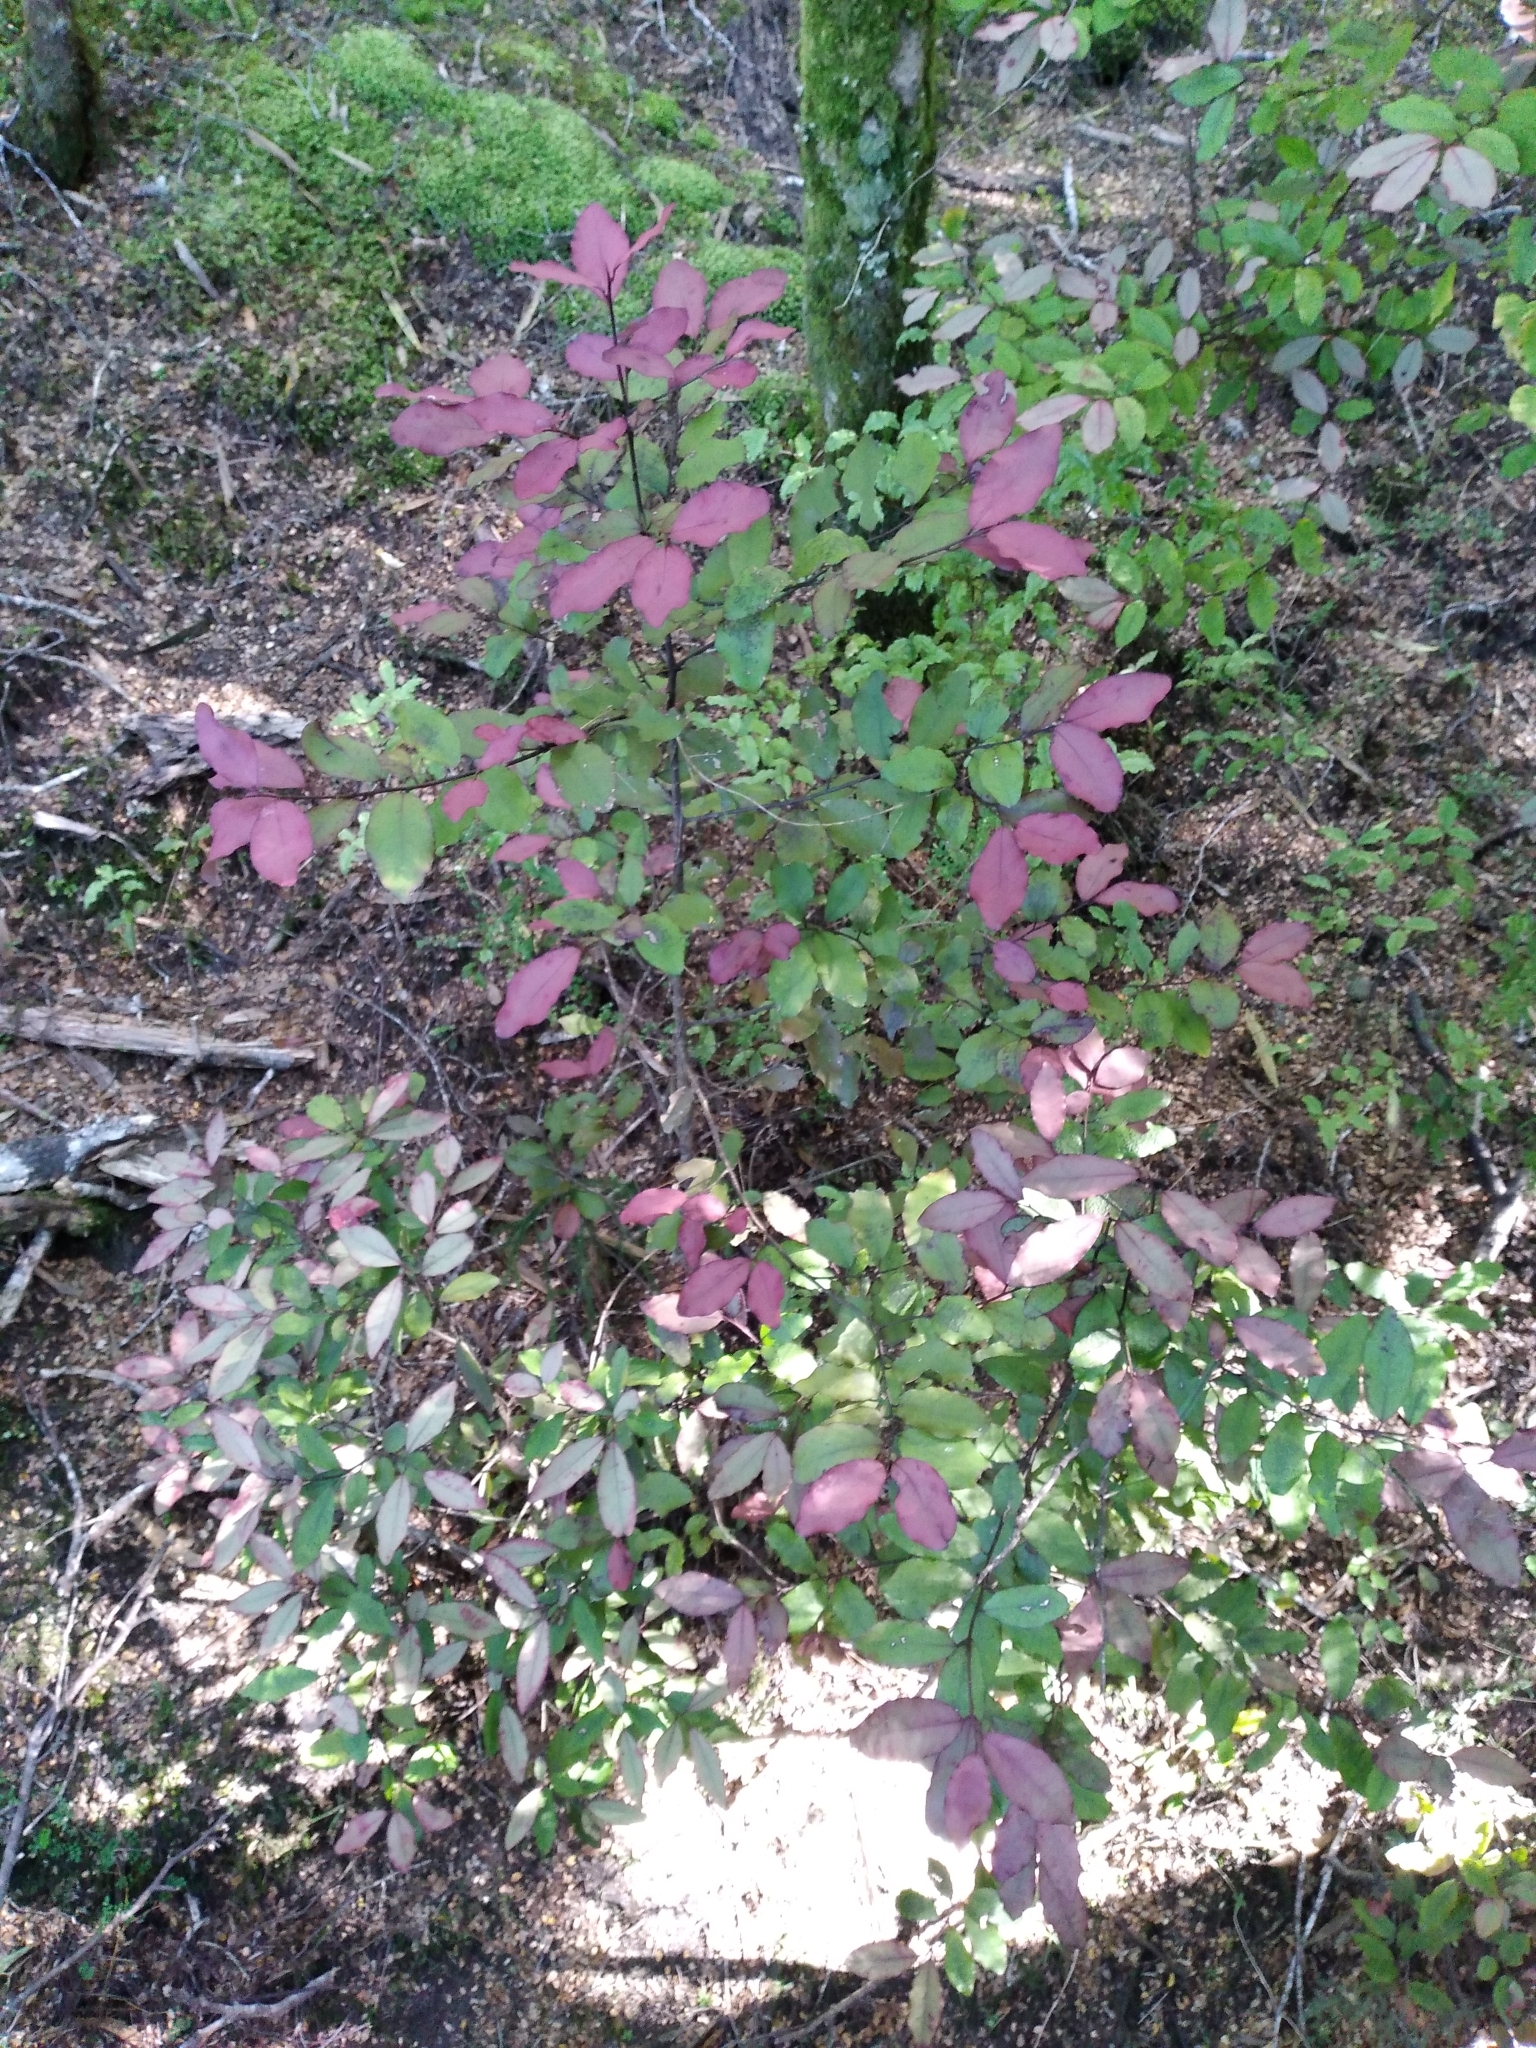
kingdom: Plantae
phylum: Tracheophyta
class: Magnoliopsida
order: Canellales
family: Winteraceae
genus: Pseudowintera
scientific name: Pseudowintera colorata
